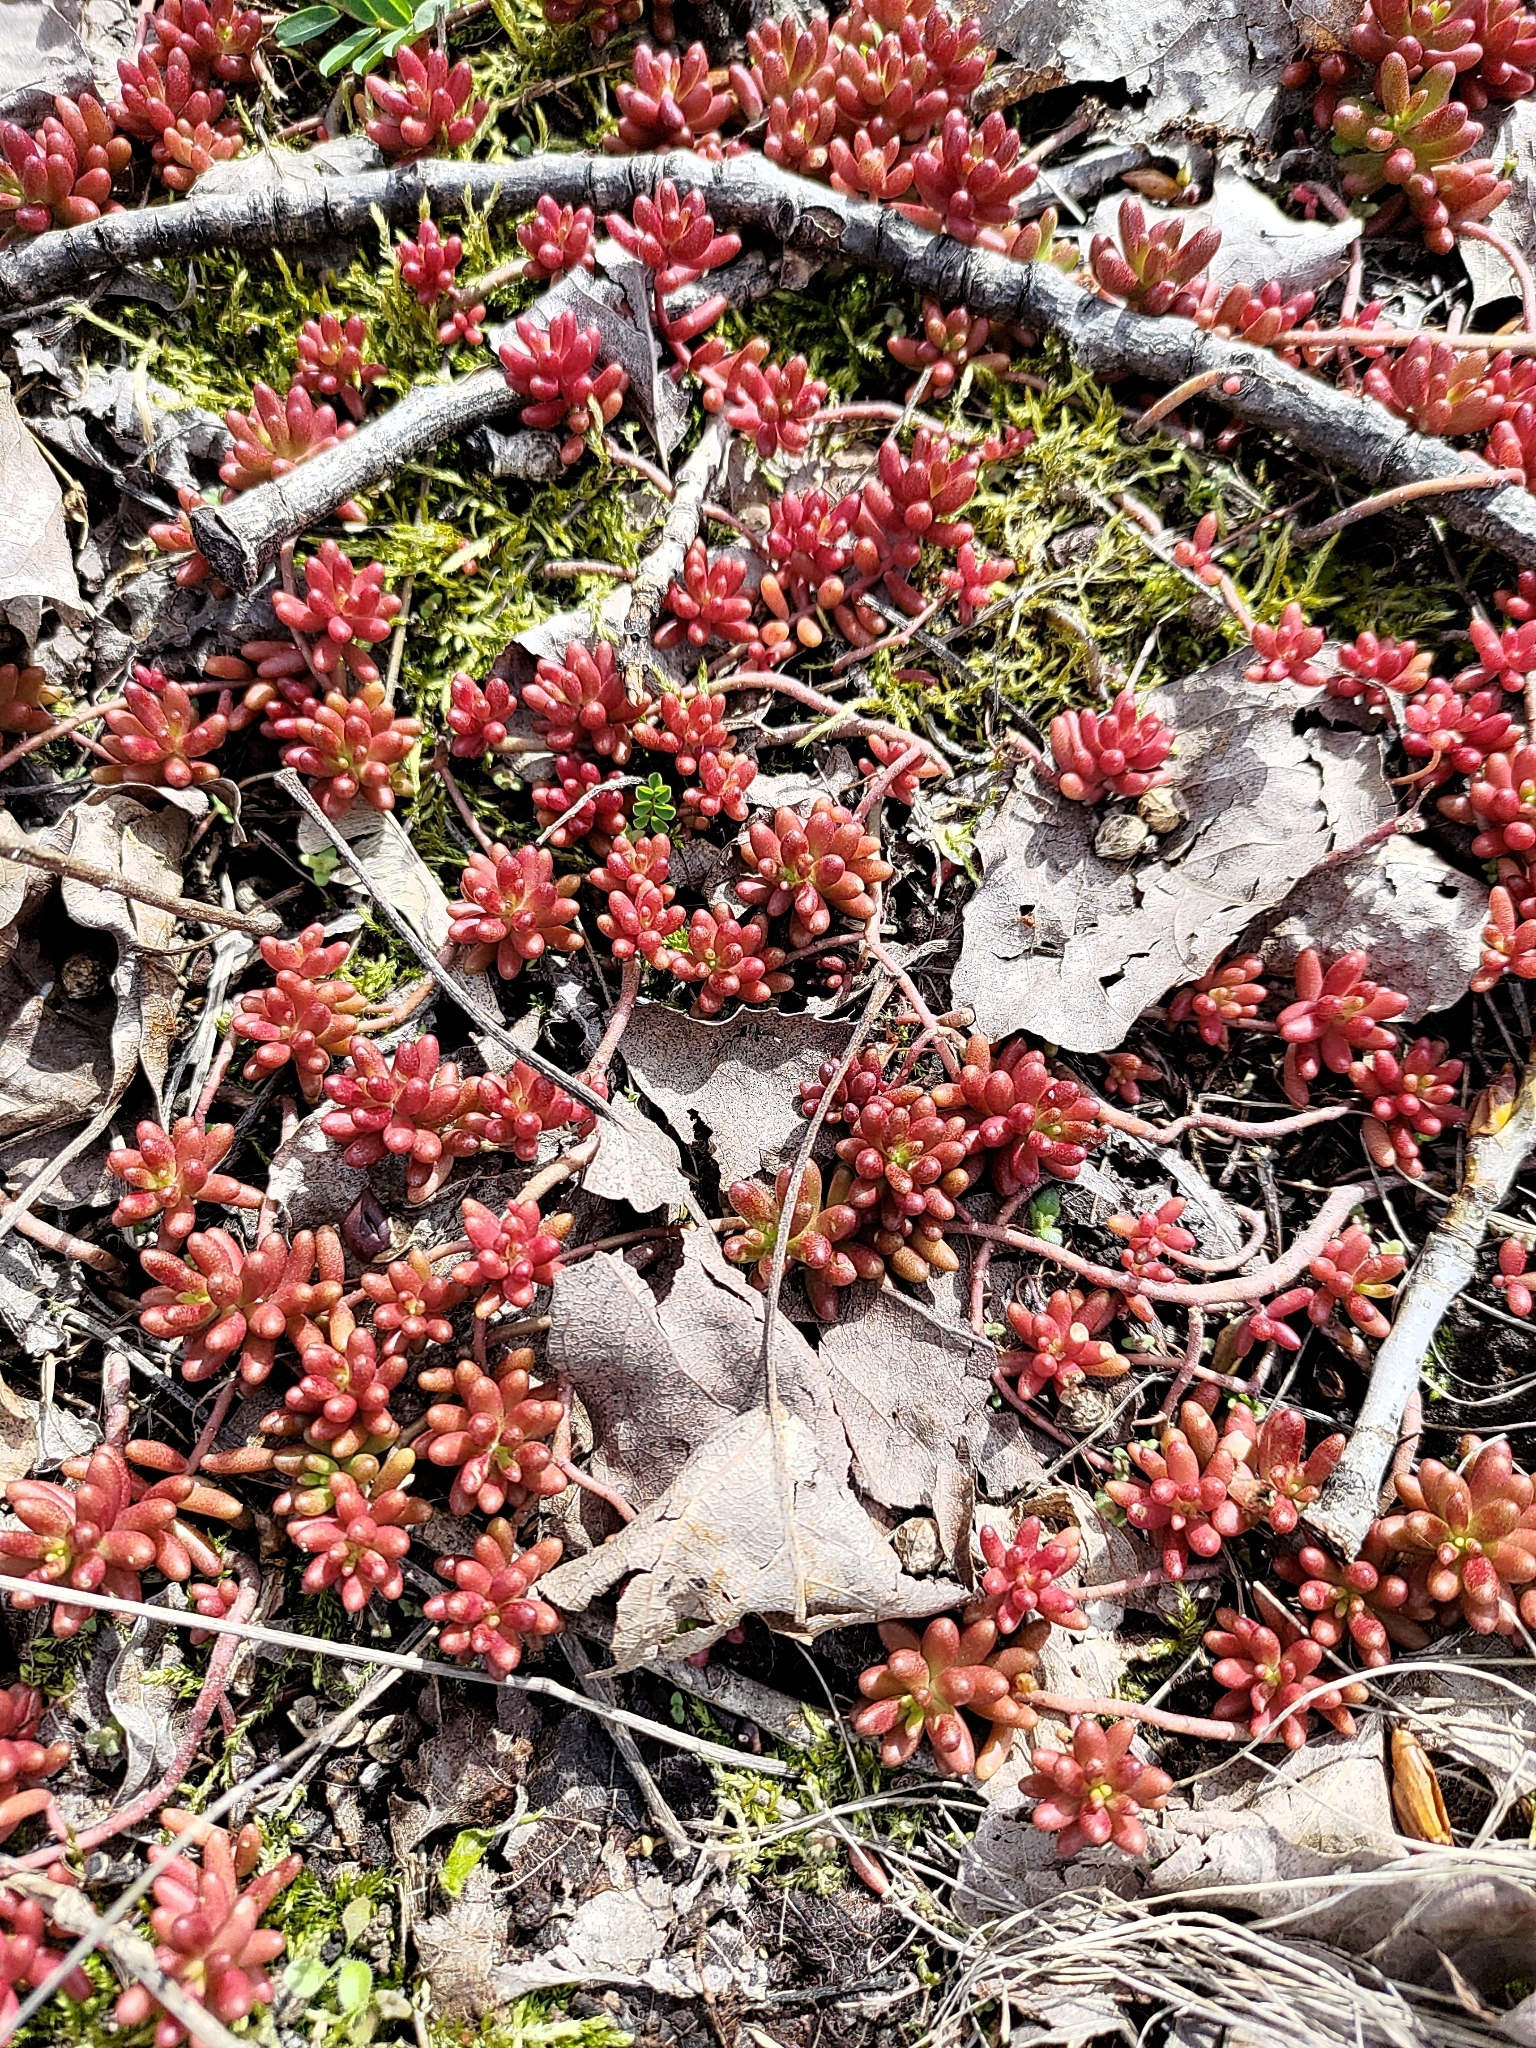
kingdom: Plantae
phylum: Tracheophyta
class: Magnoliopsida
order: Saxifragales
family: Crassulaceae
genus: Sedum
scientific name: Sedum album
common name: White stonecrop
